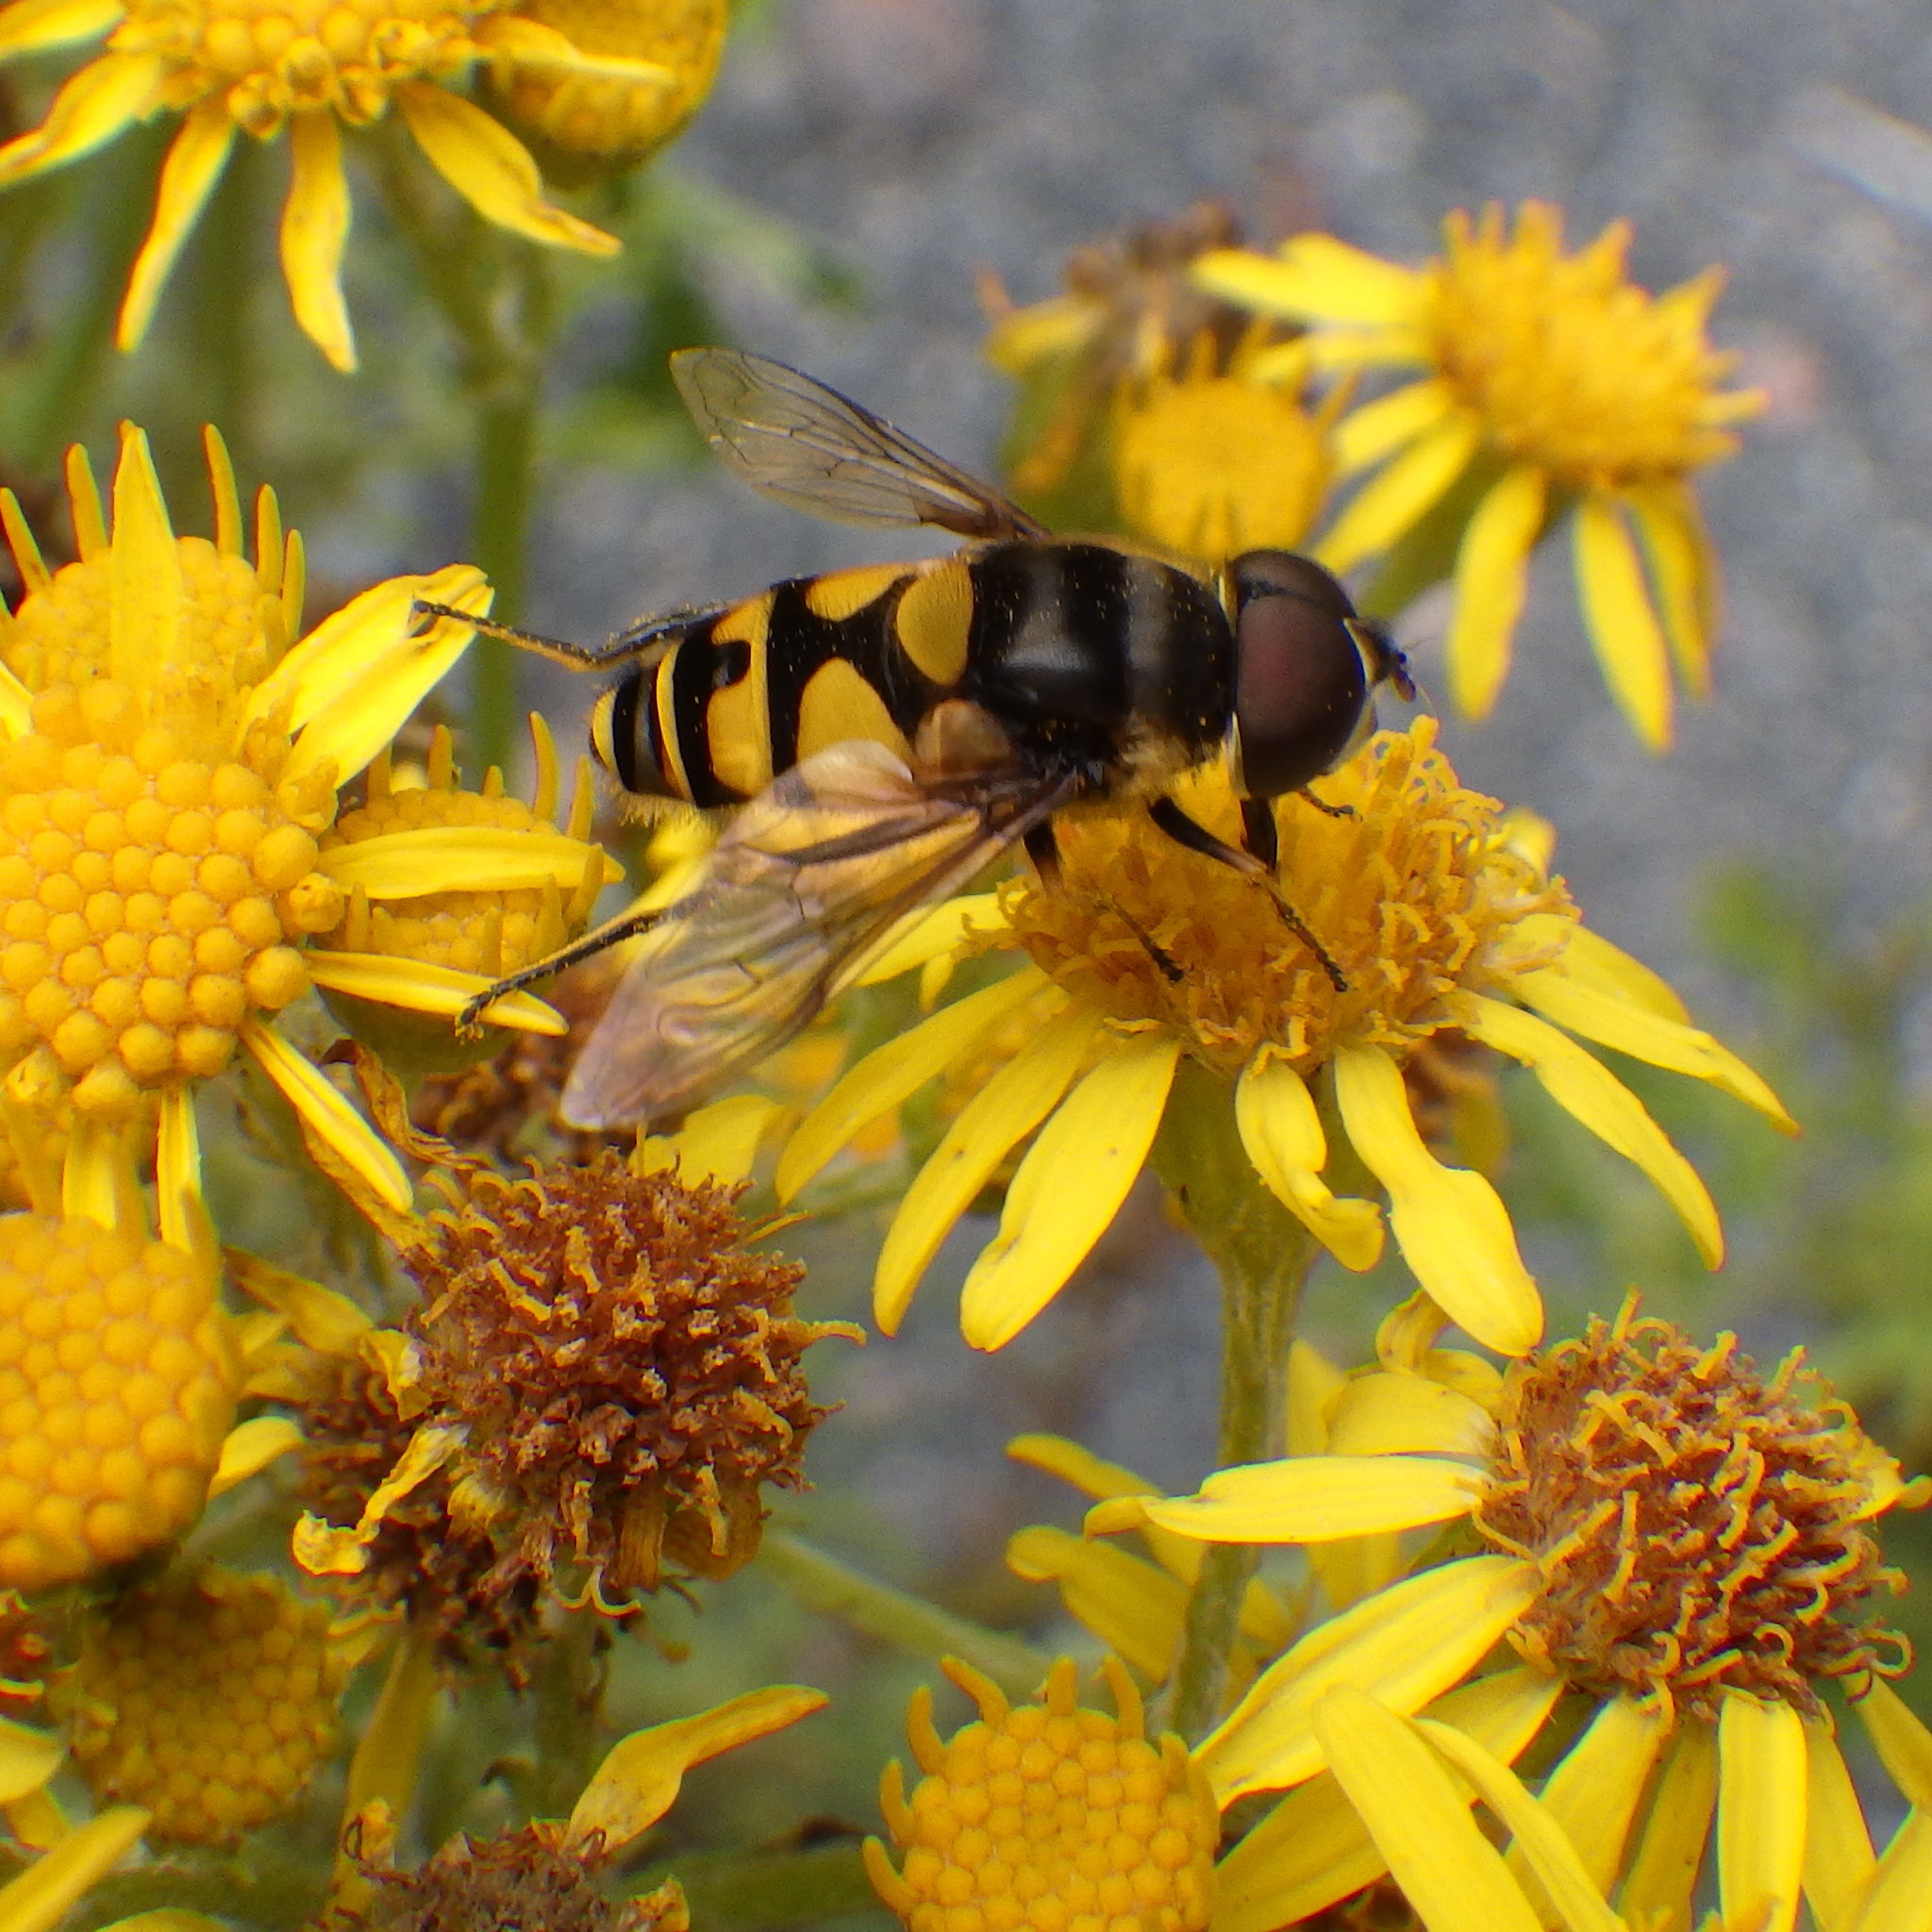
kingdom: Animalia
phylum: Arthropoda
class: Insecta
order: Diptera
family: Syrphidae
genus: Eristalis
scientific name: Eristalis transversa
